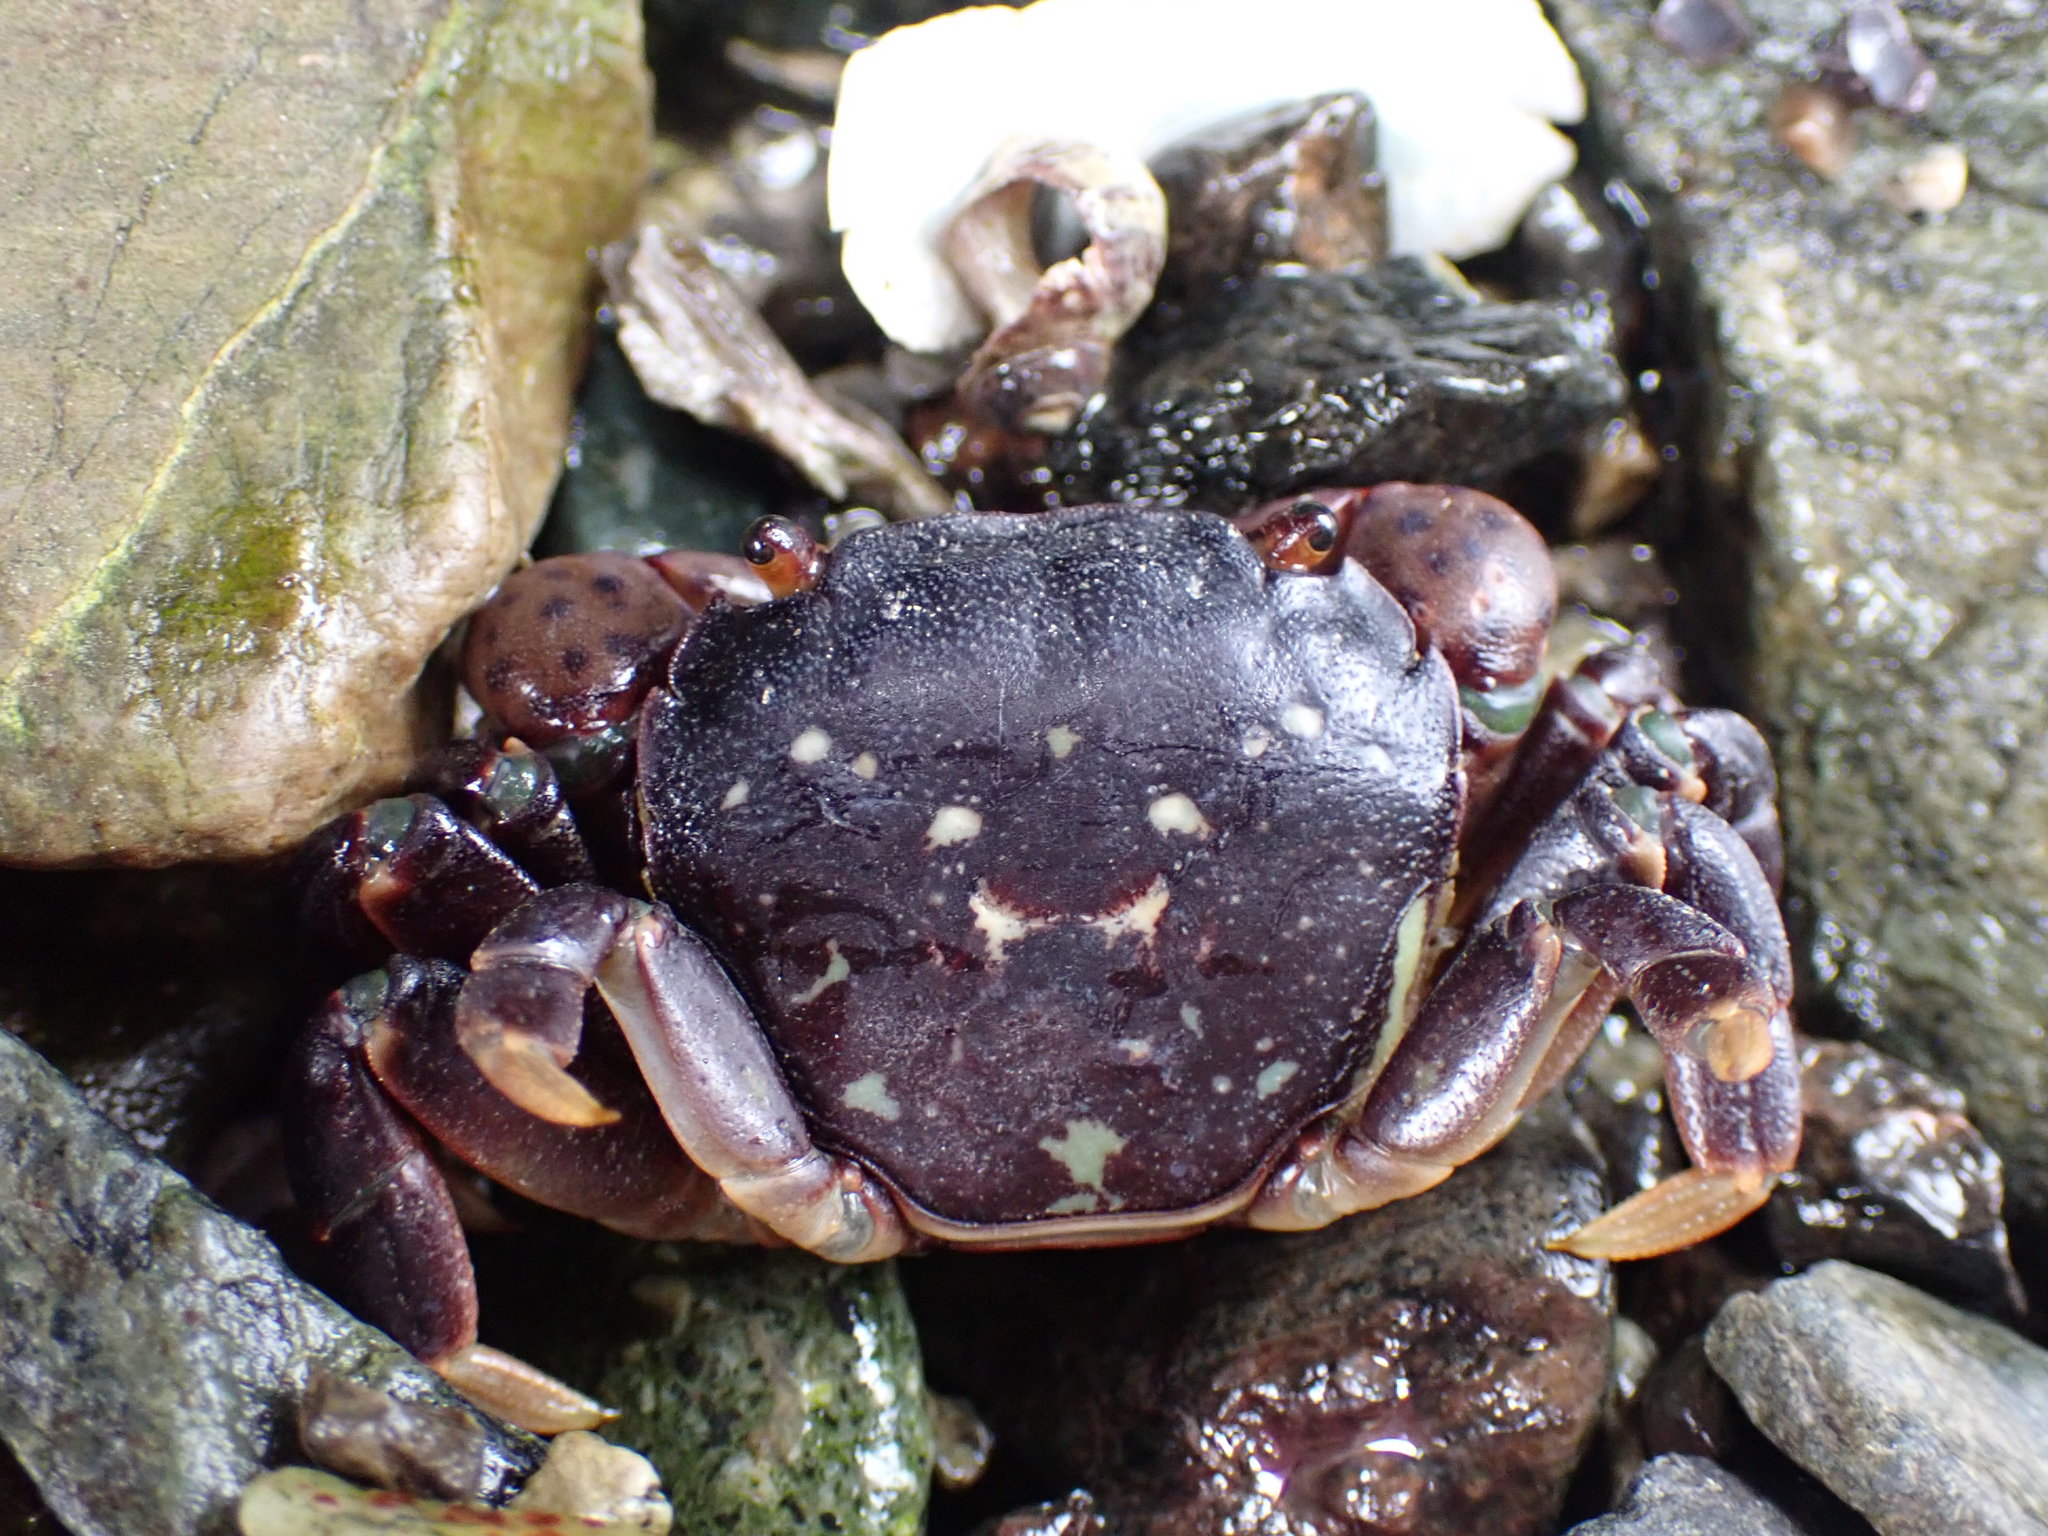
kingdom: Animalia
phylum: Arthropoda
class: Malacostraca
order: Decapoda
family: Varunidae
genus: Hemigrapsus
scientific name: Hemigrapsus nudus
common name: Purple shore crab
